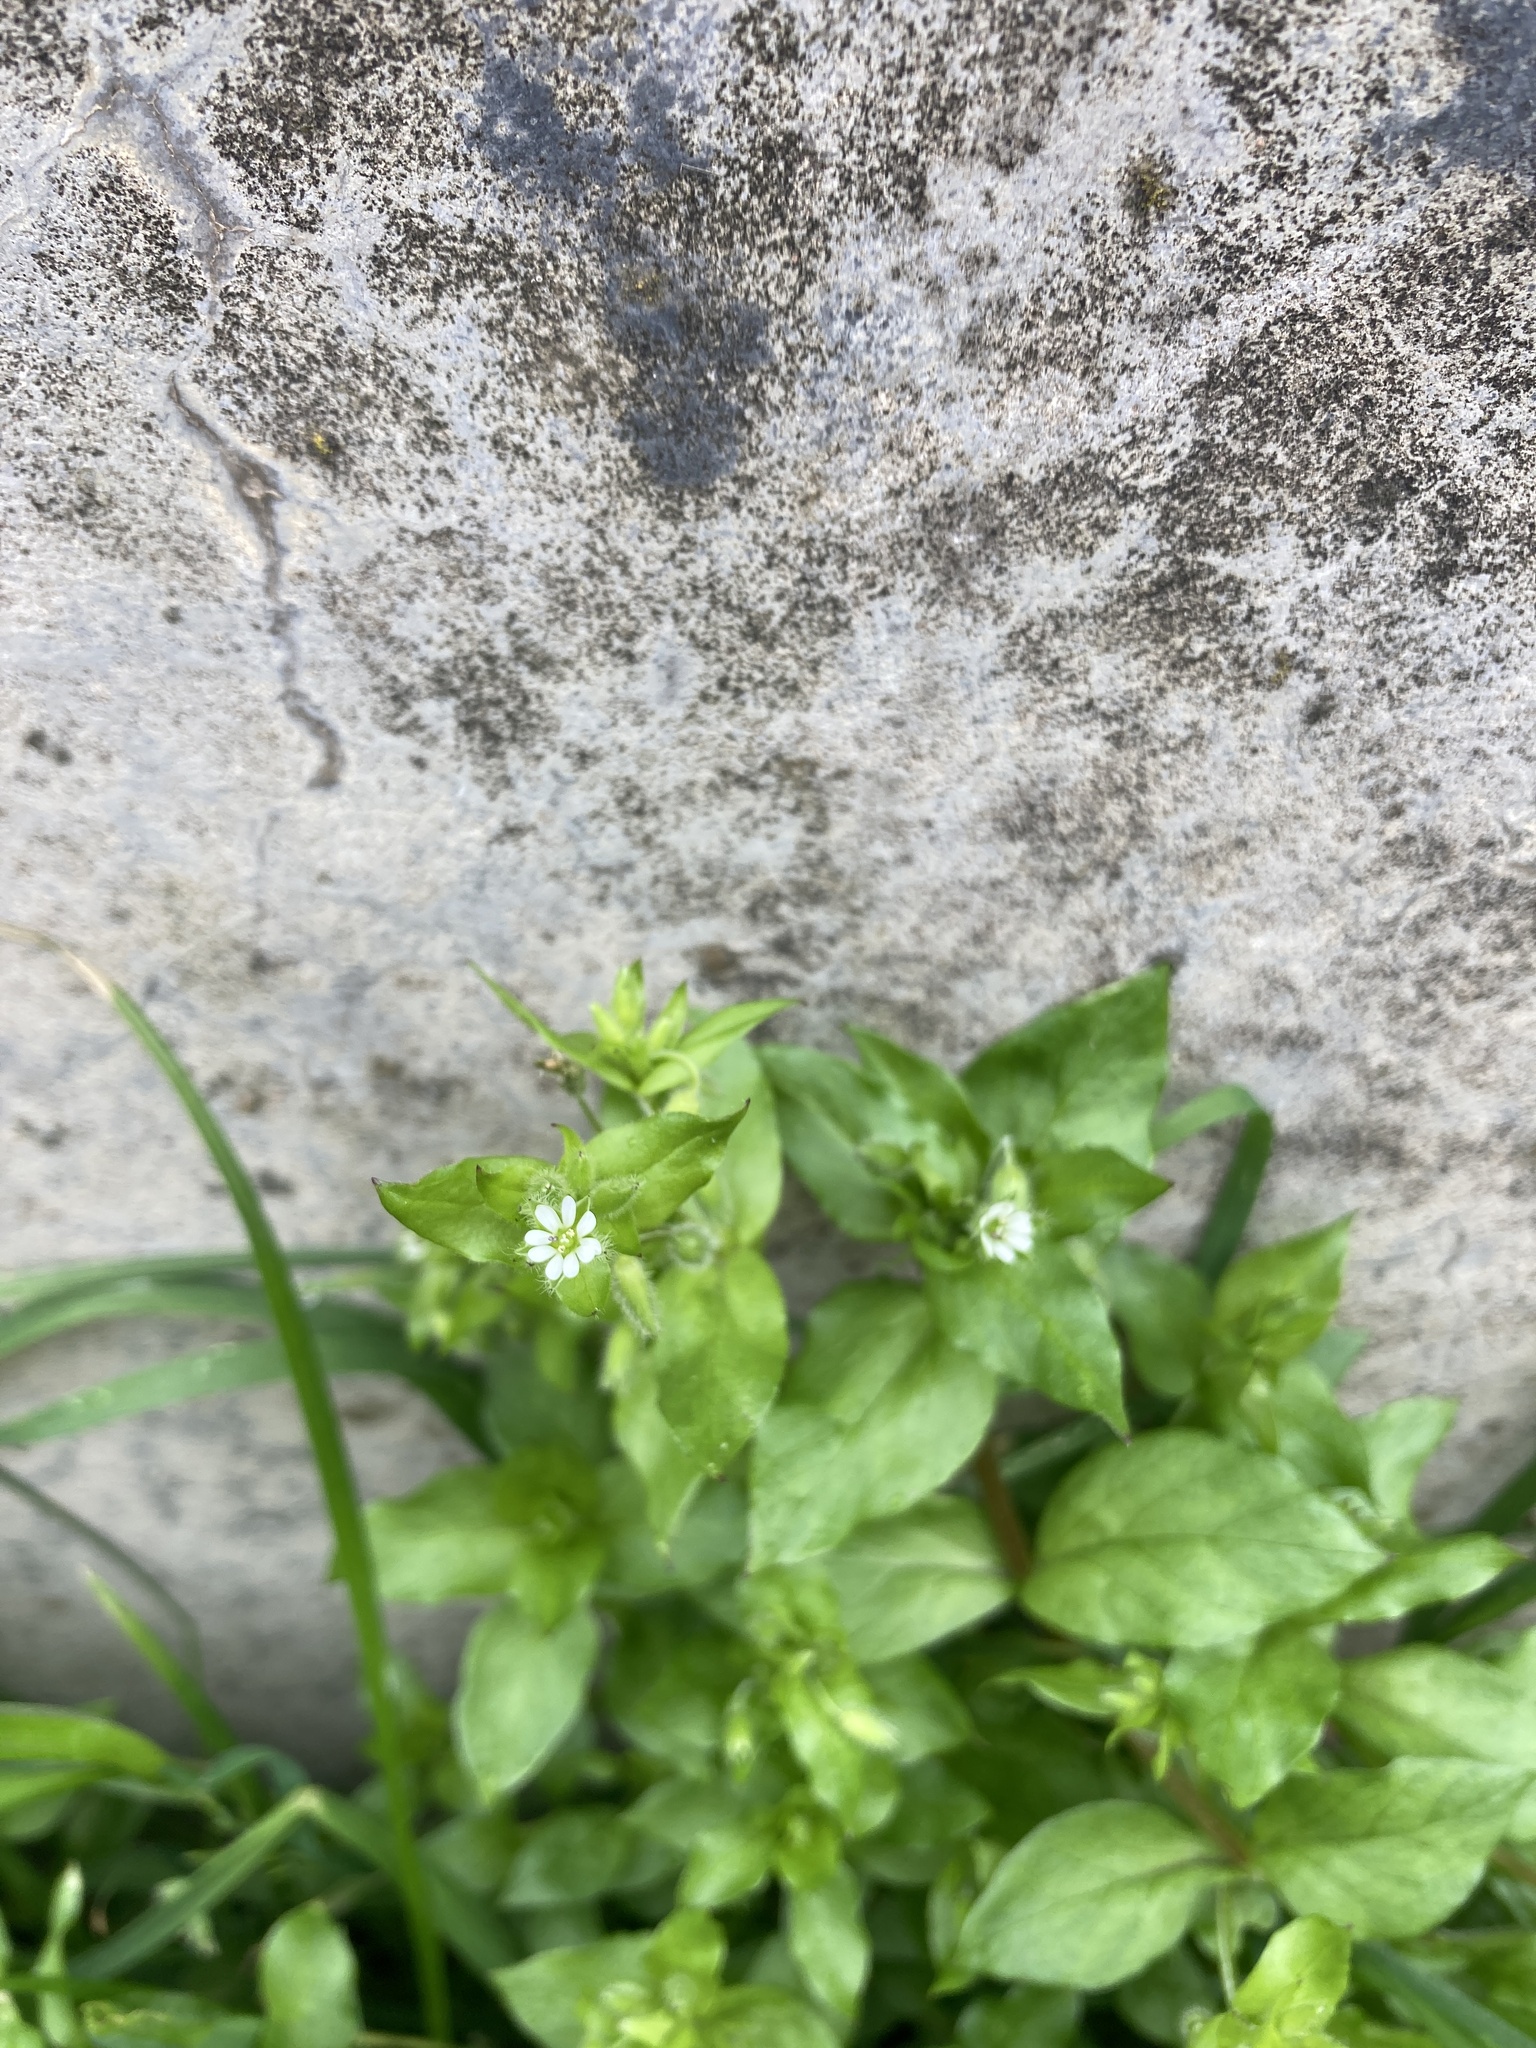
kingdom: Plantae
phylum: Tracheophyta
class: Magnoliopsida
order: Caryophyllales
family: Caryophyllaceae
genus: Stellaria
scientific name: Stellaria media
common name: Common chickweed
